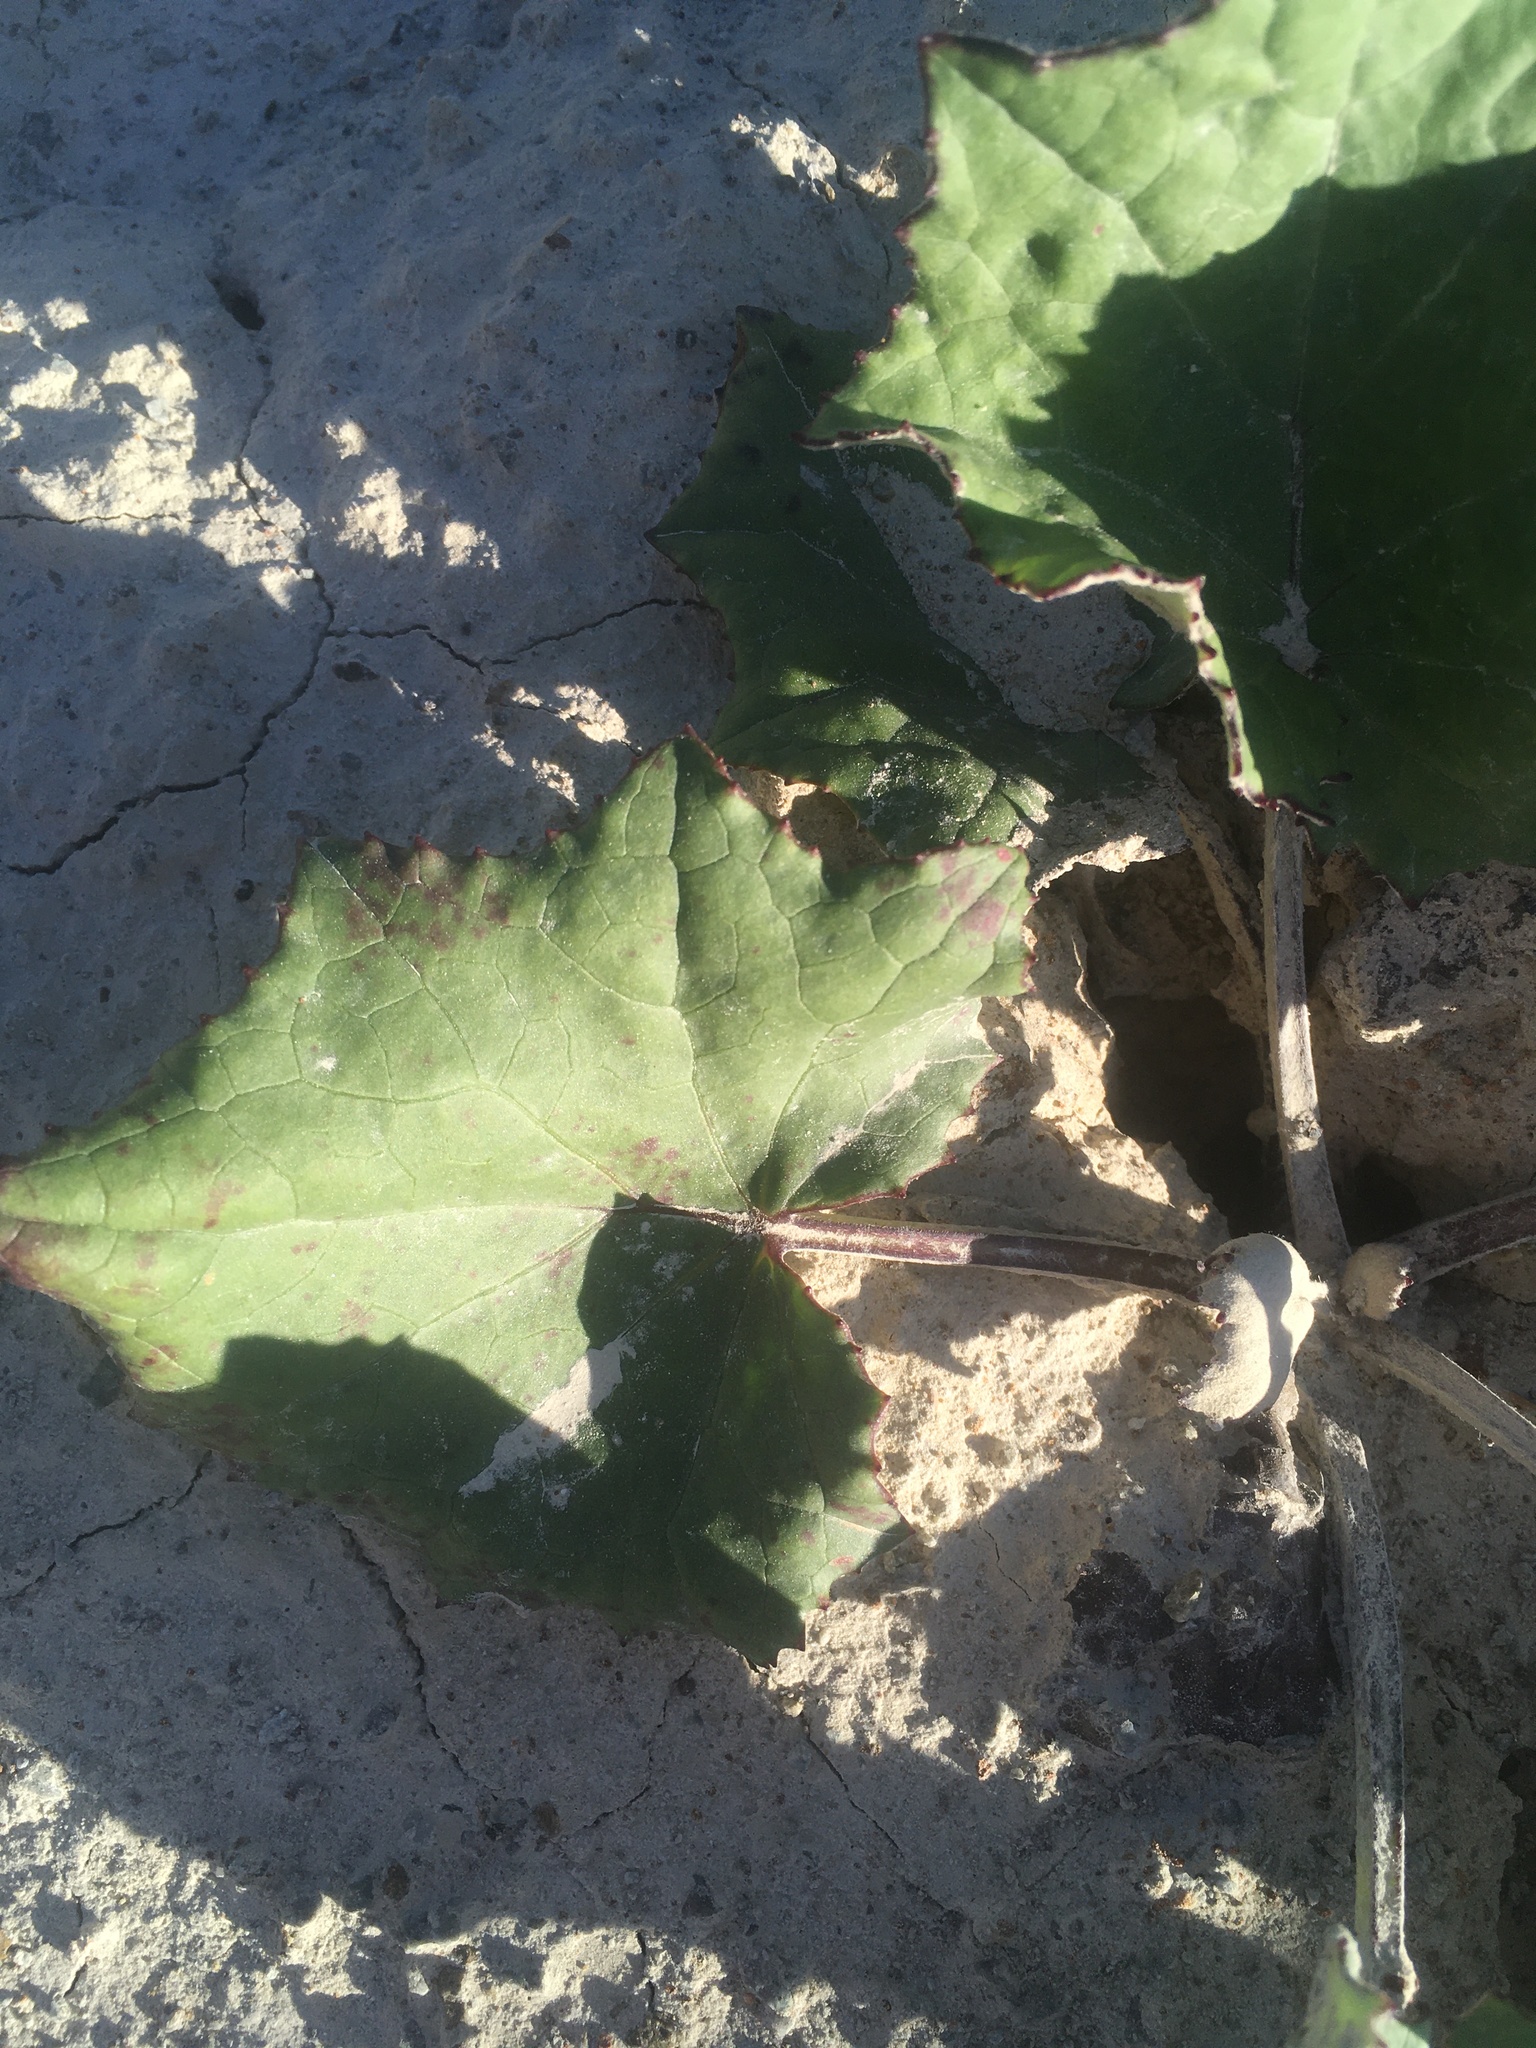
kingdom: Plantae
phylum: Tracheophyta
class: Magnoliopsida
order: Asterales
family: Asteraceae
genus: Tussilago
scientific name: Tussilago farfara
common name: Coltsfoot
